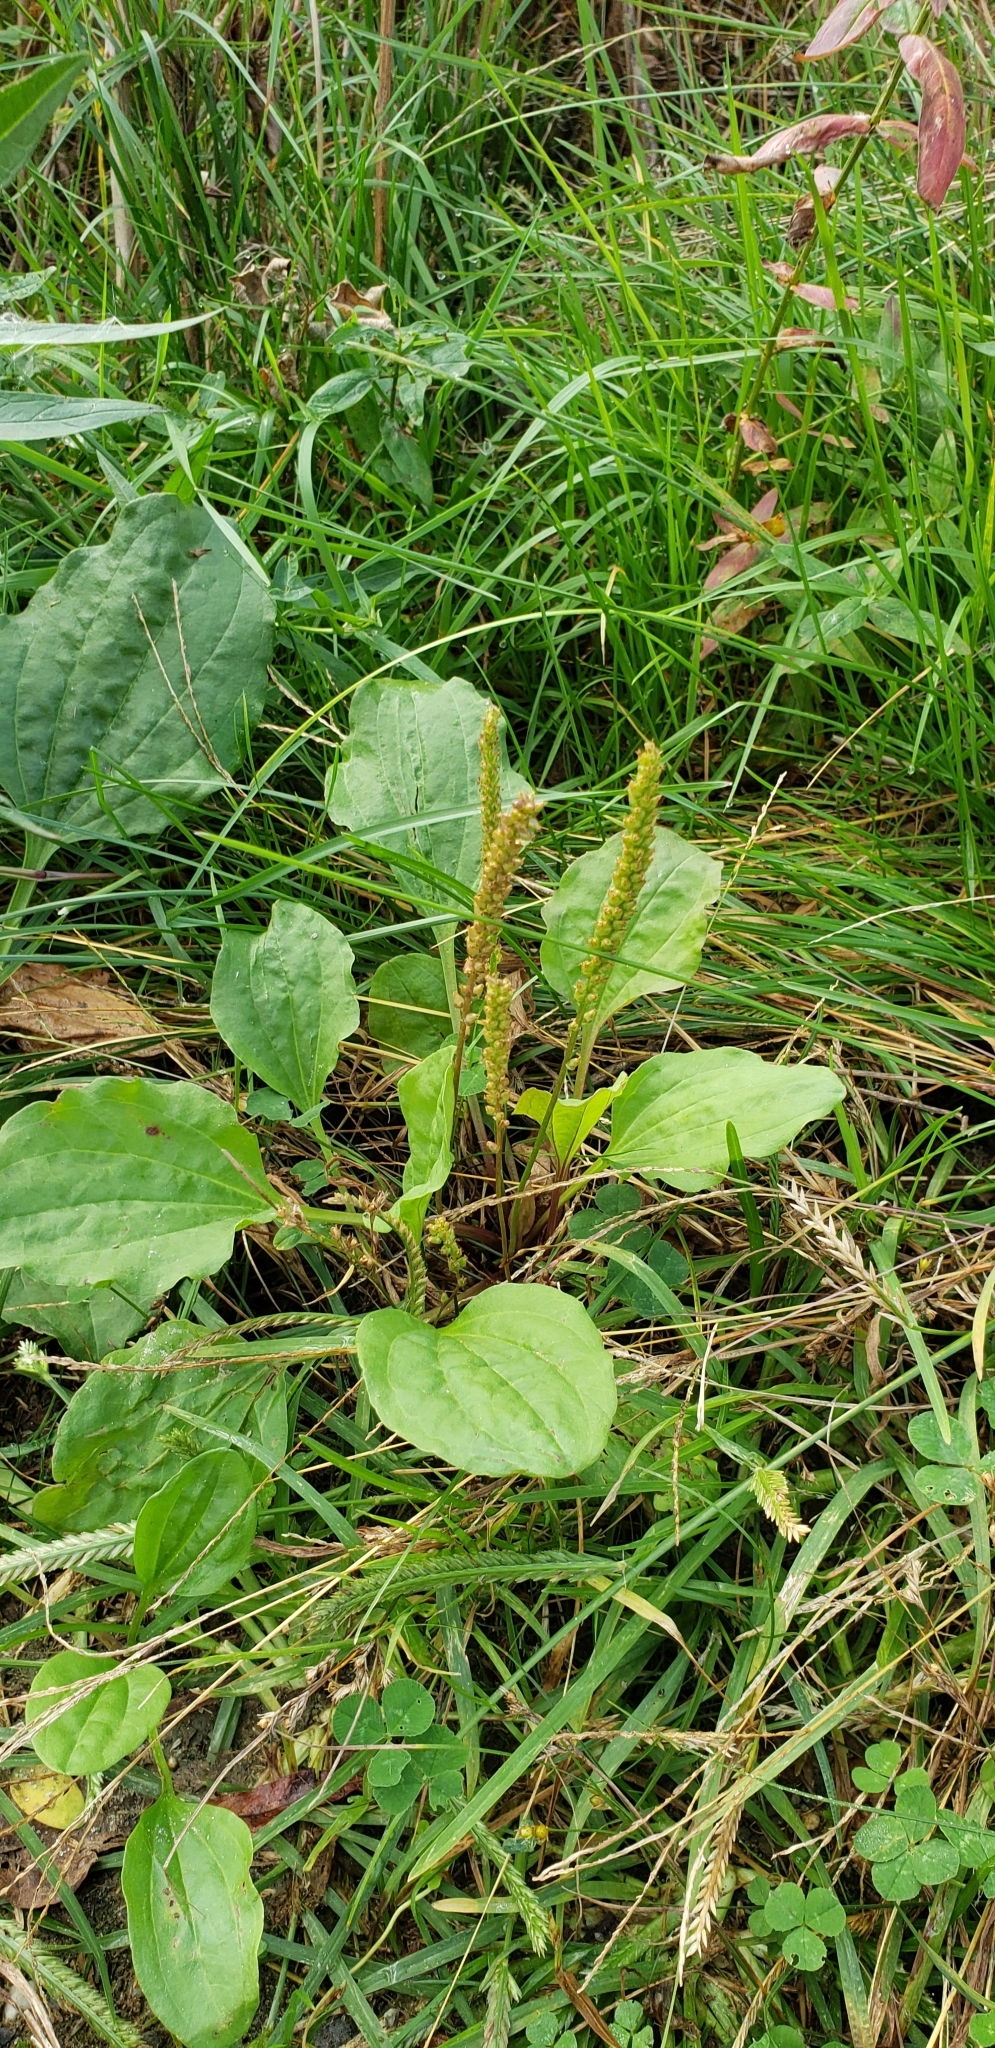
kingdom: Plantae
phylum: Tracheophyta
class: Magnoliopsida
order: Lamiales
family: Plantaginaceae
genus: Plantago
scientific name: Plantago major
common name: Common plantain
